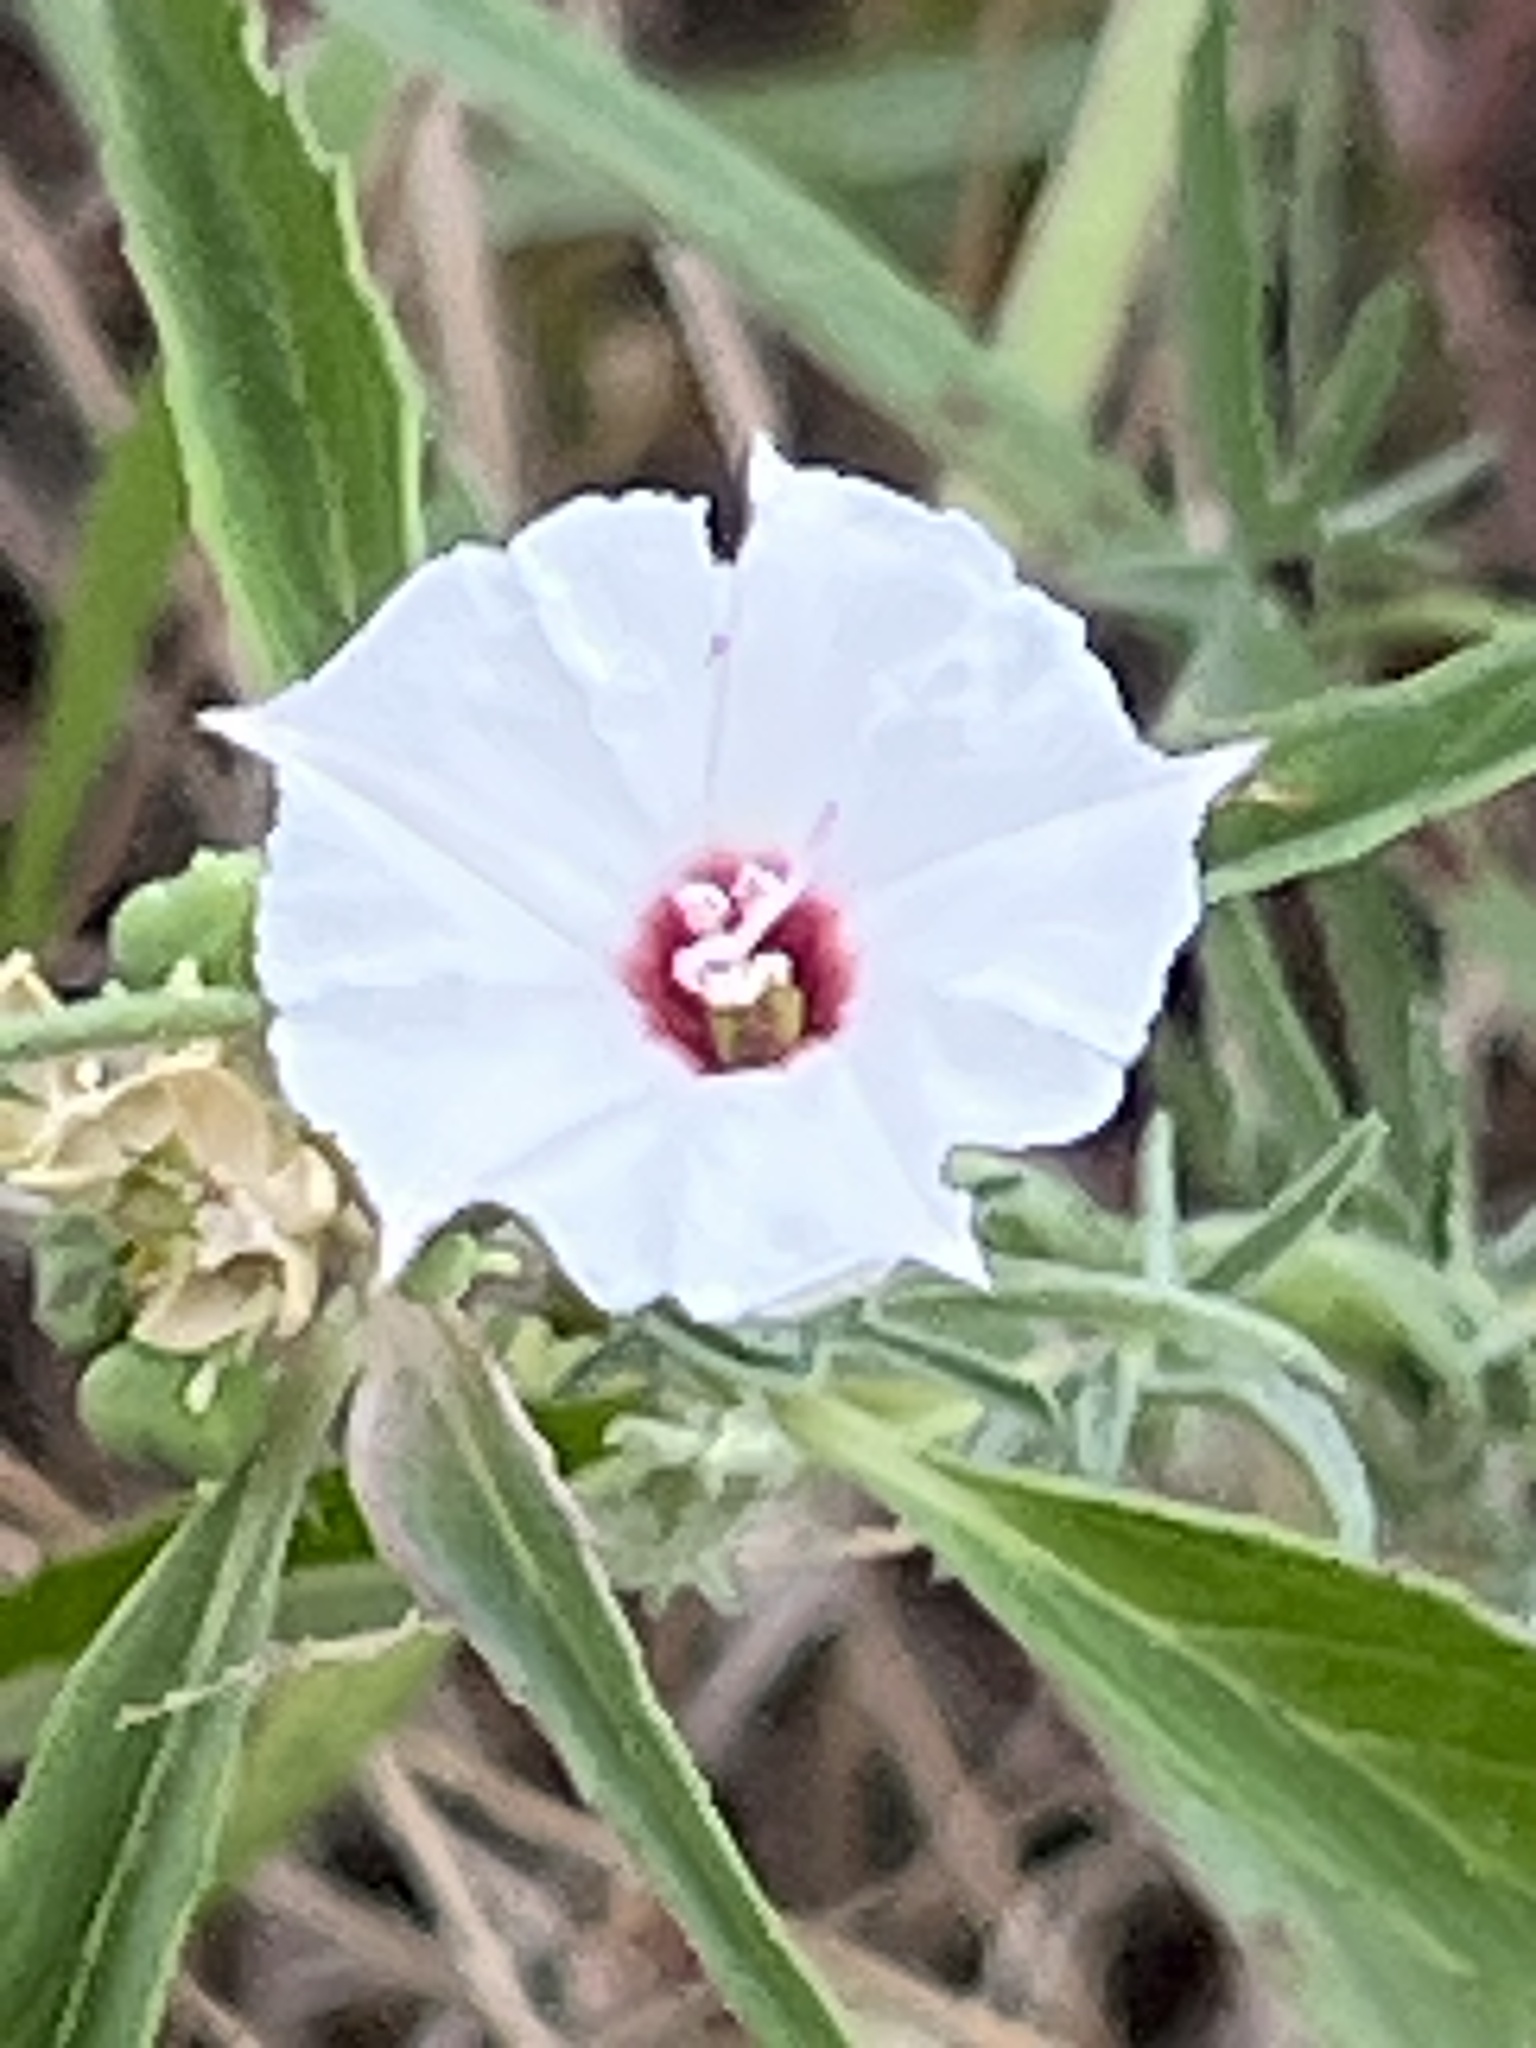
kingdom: Plantae
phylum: Tracheophyta
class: Magnoliopsida
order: Solanales
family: Convolvulaceae
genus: Convolvulus
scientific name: Convolvulus equitans
